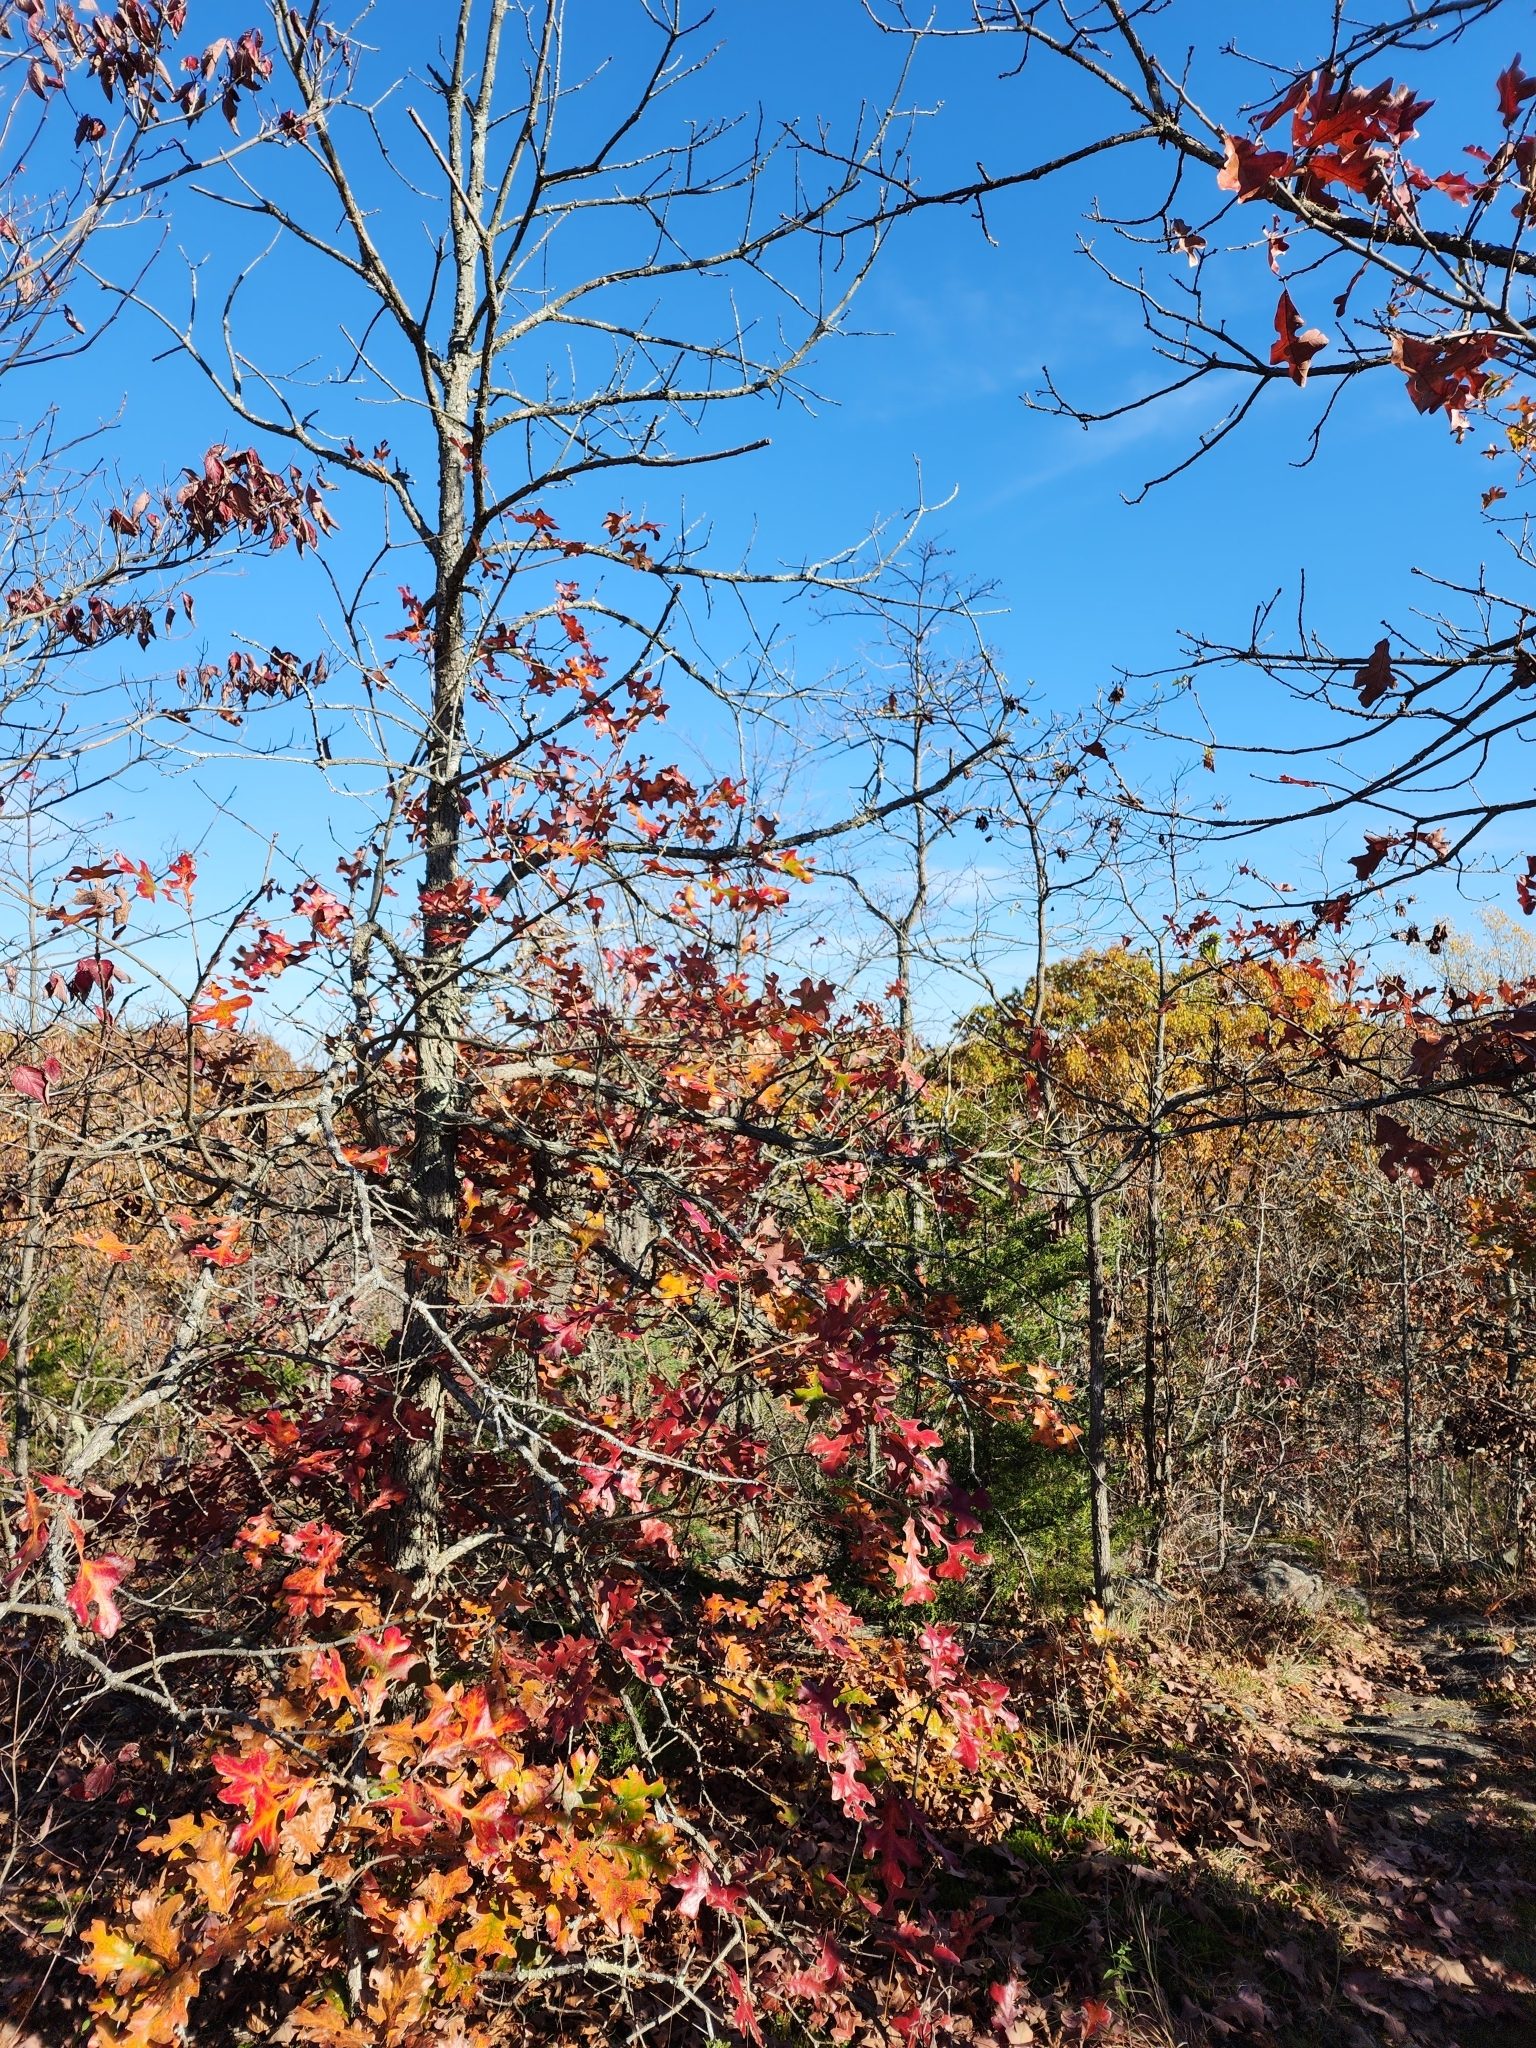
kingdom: Plantae
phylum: Tracheophyta
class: Magnoliopsida
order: Fagales
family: Fagaceae
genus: Quercus
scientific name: Quercus stellata
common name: Post oak
